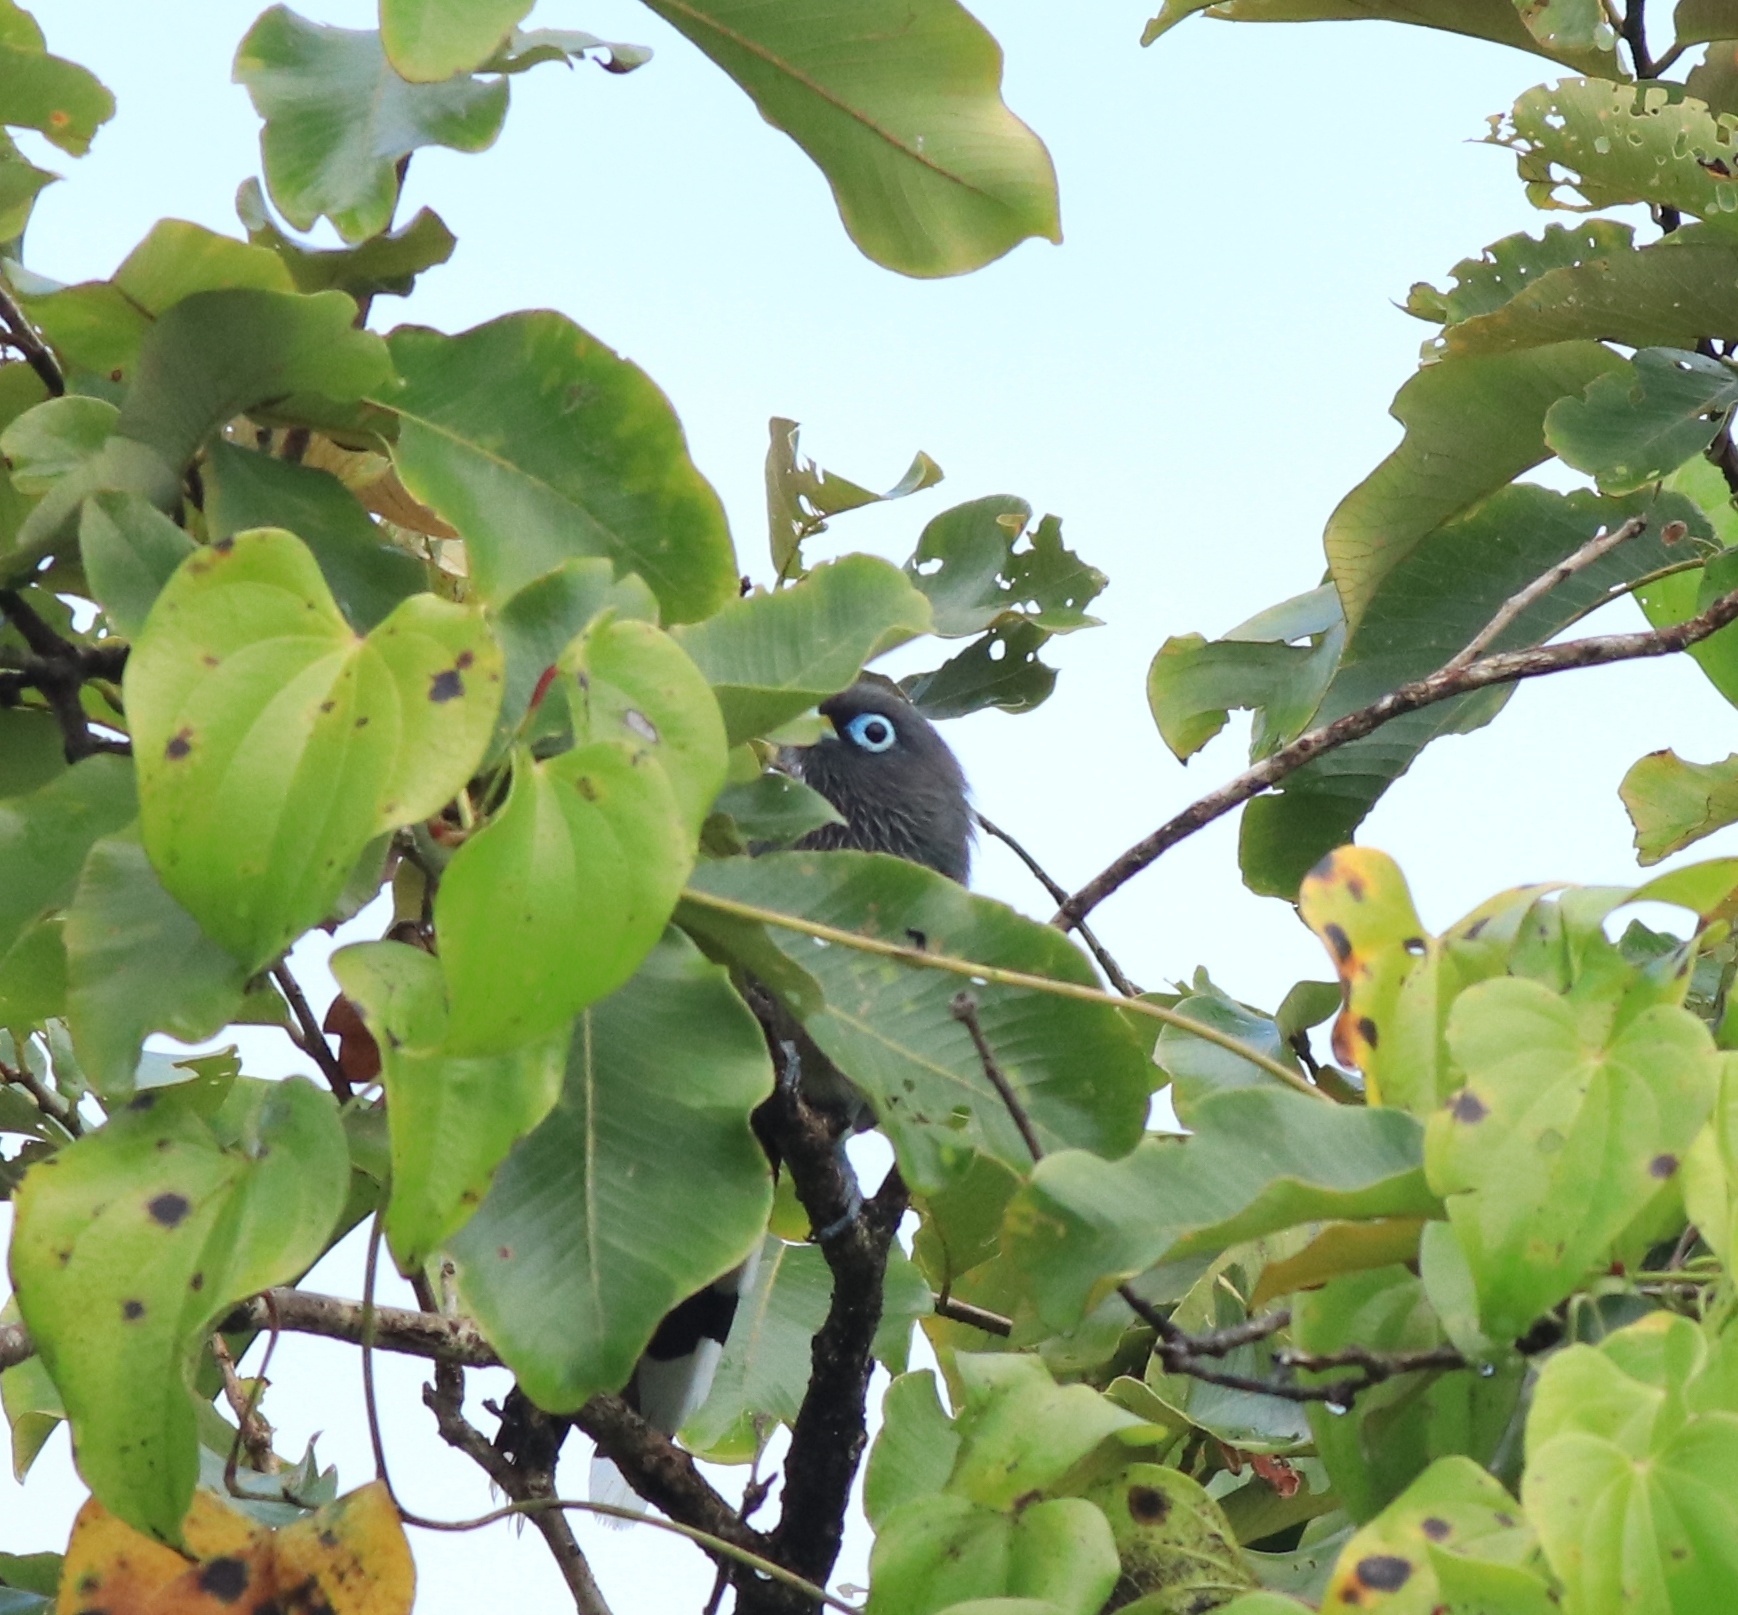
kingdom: Animalia
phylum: Chordata
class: Aves
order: Cuculiformes
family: Cuculidae
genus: Rhopodytes
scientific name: Rhopodytes viridirostris
